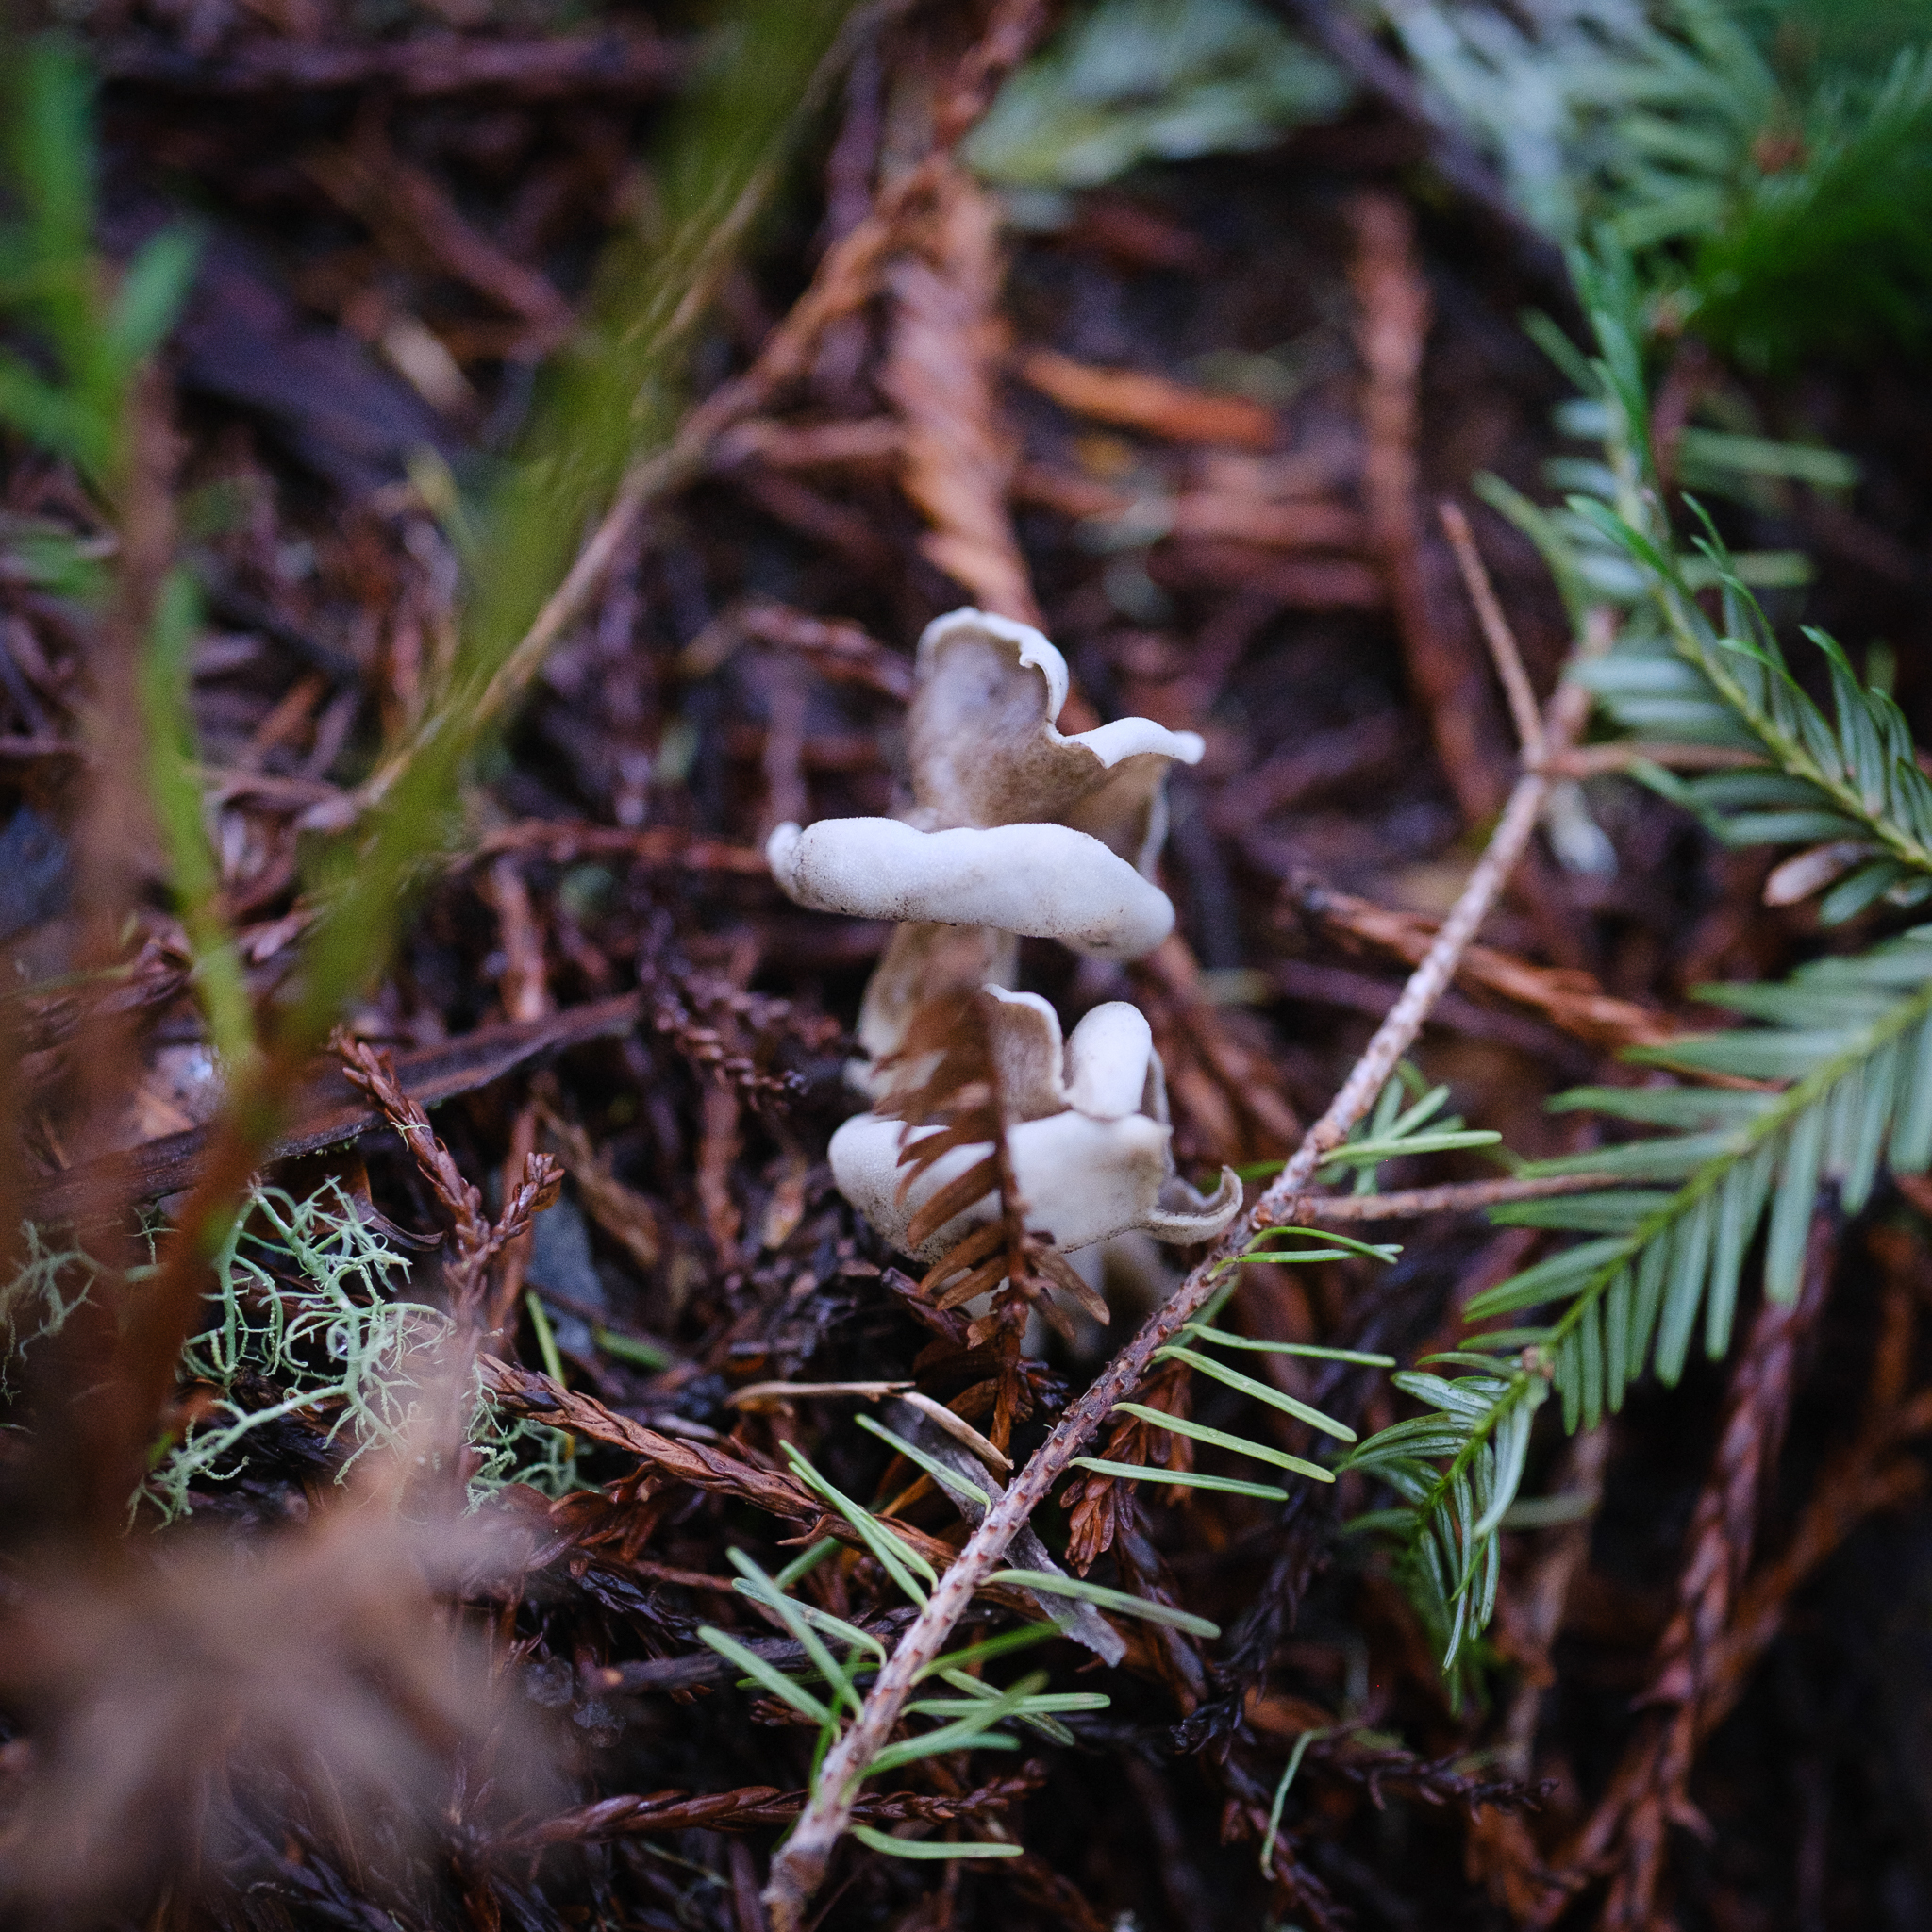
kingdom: Fungi
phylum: Ascomycota
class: Pezizomycetes
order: Pezizales
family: Helvellaceae
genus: Helvella
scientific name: Helvella compressa
